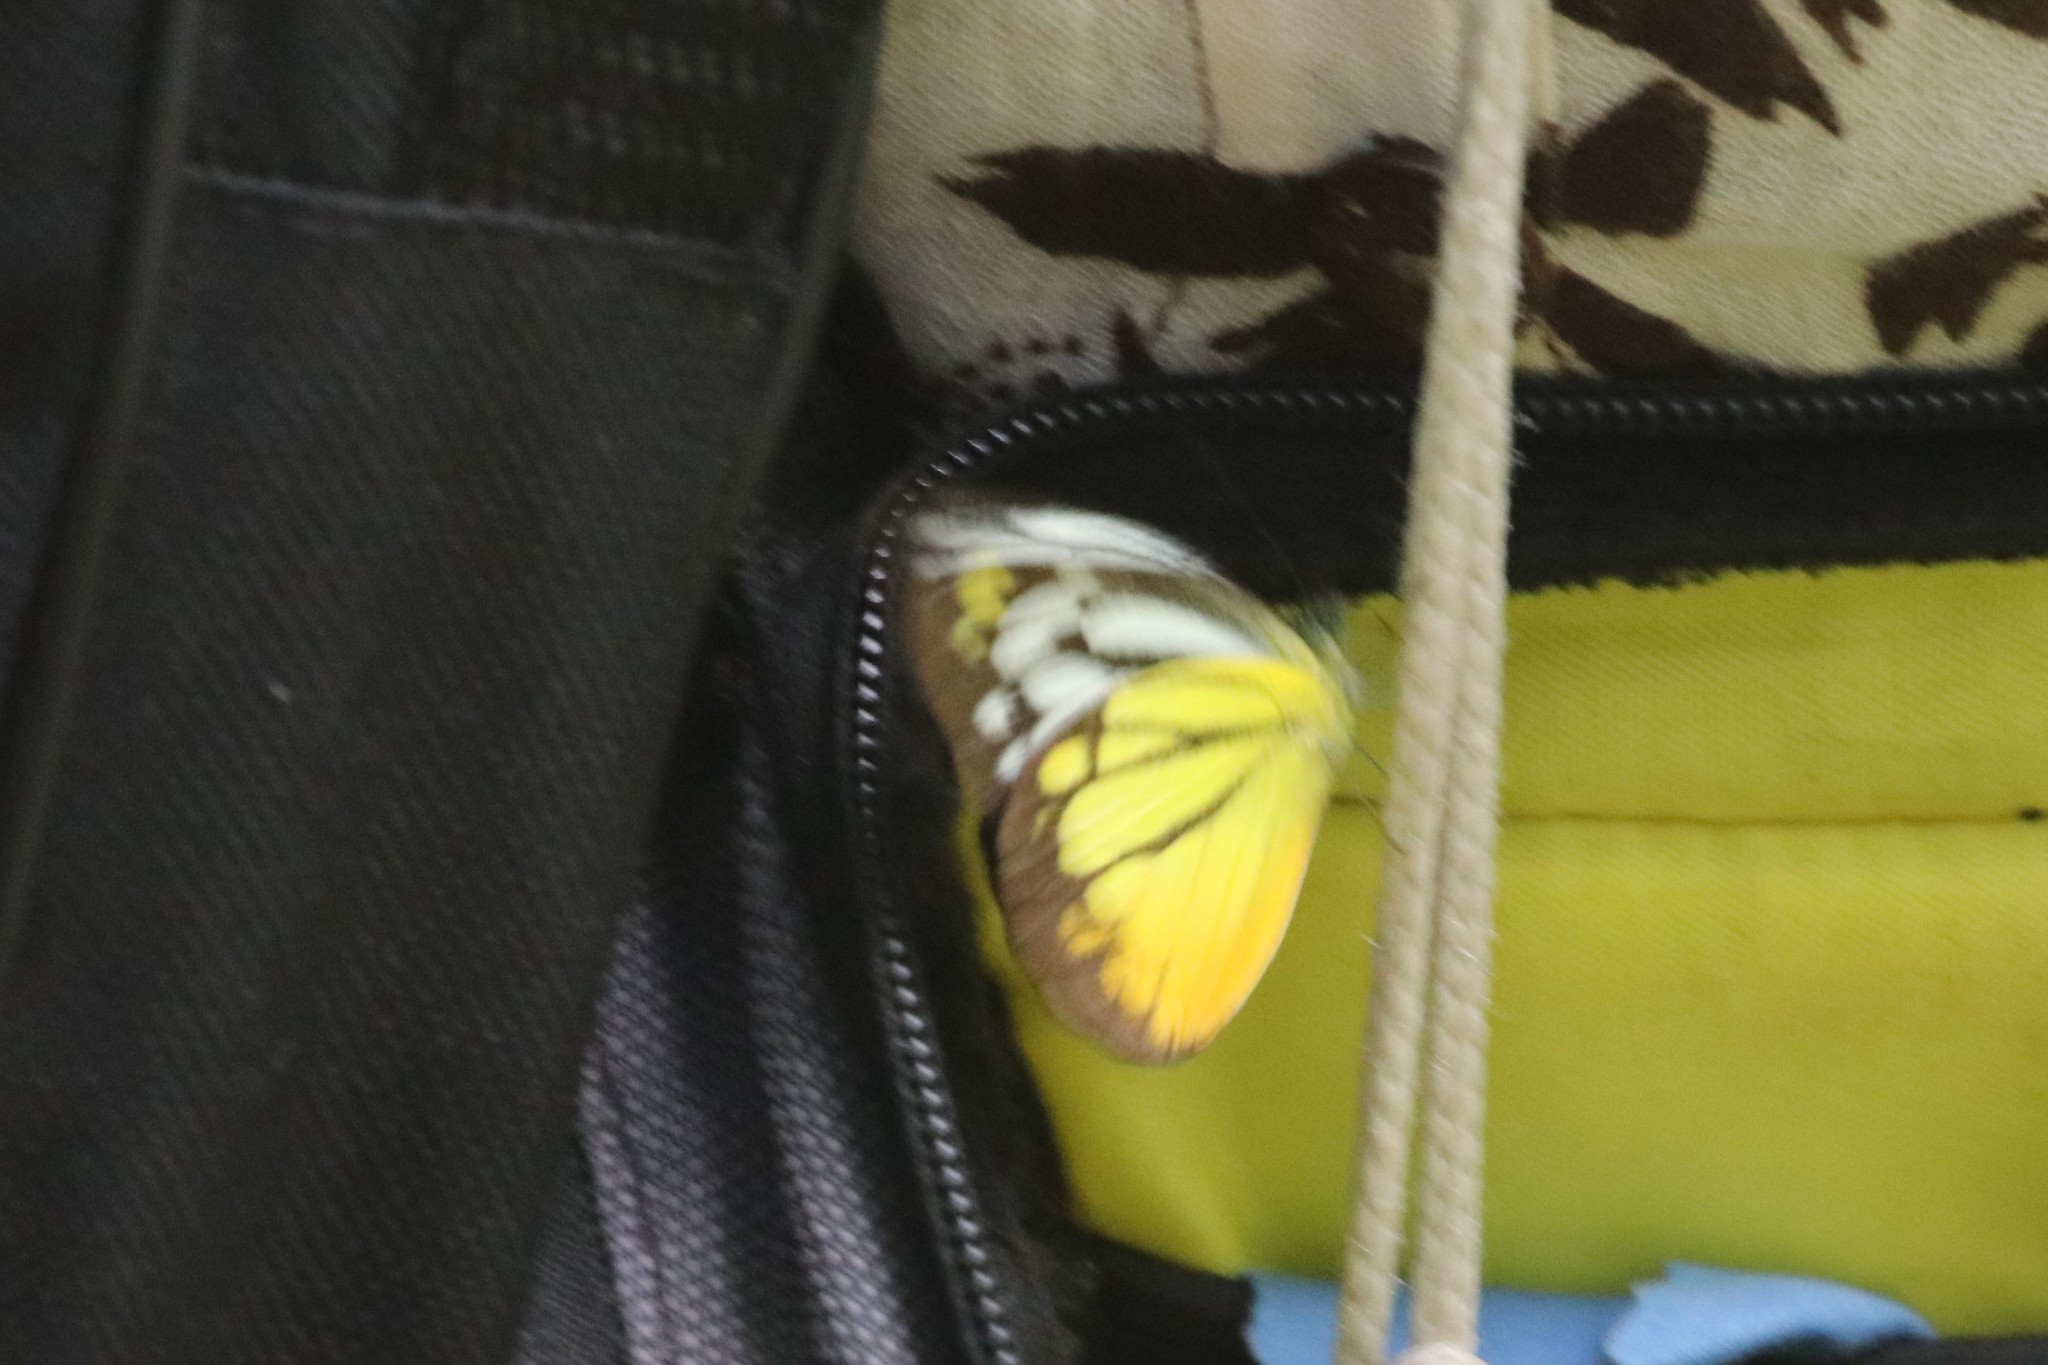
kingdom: Animalia
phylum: Arthropoda
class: Insecta
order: Lepidoptera
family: Pieridae
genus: Cepora
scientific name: Cepora iudith
